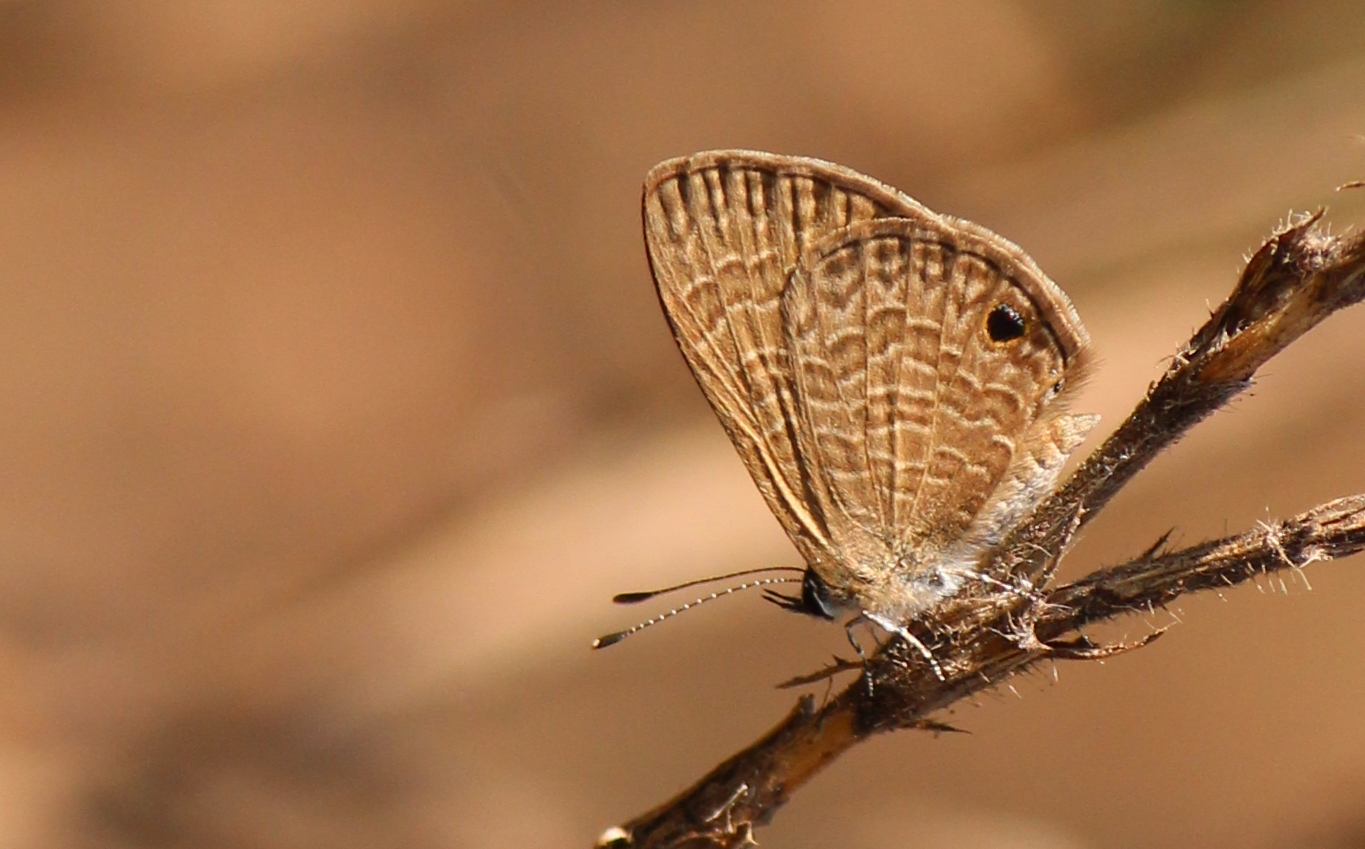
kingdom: Animalia
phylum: Arthropoda
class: Insecta
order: Lepidoptera
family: Lycaenidae
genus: Prosotas
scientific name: Prosotas dubiosa
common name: Tailless lineblue
